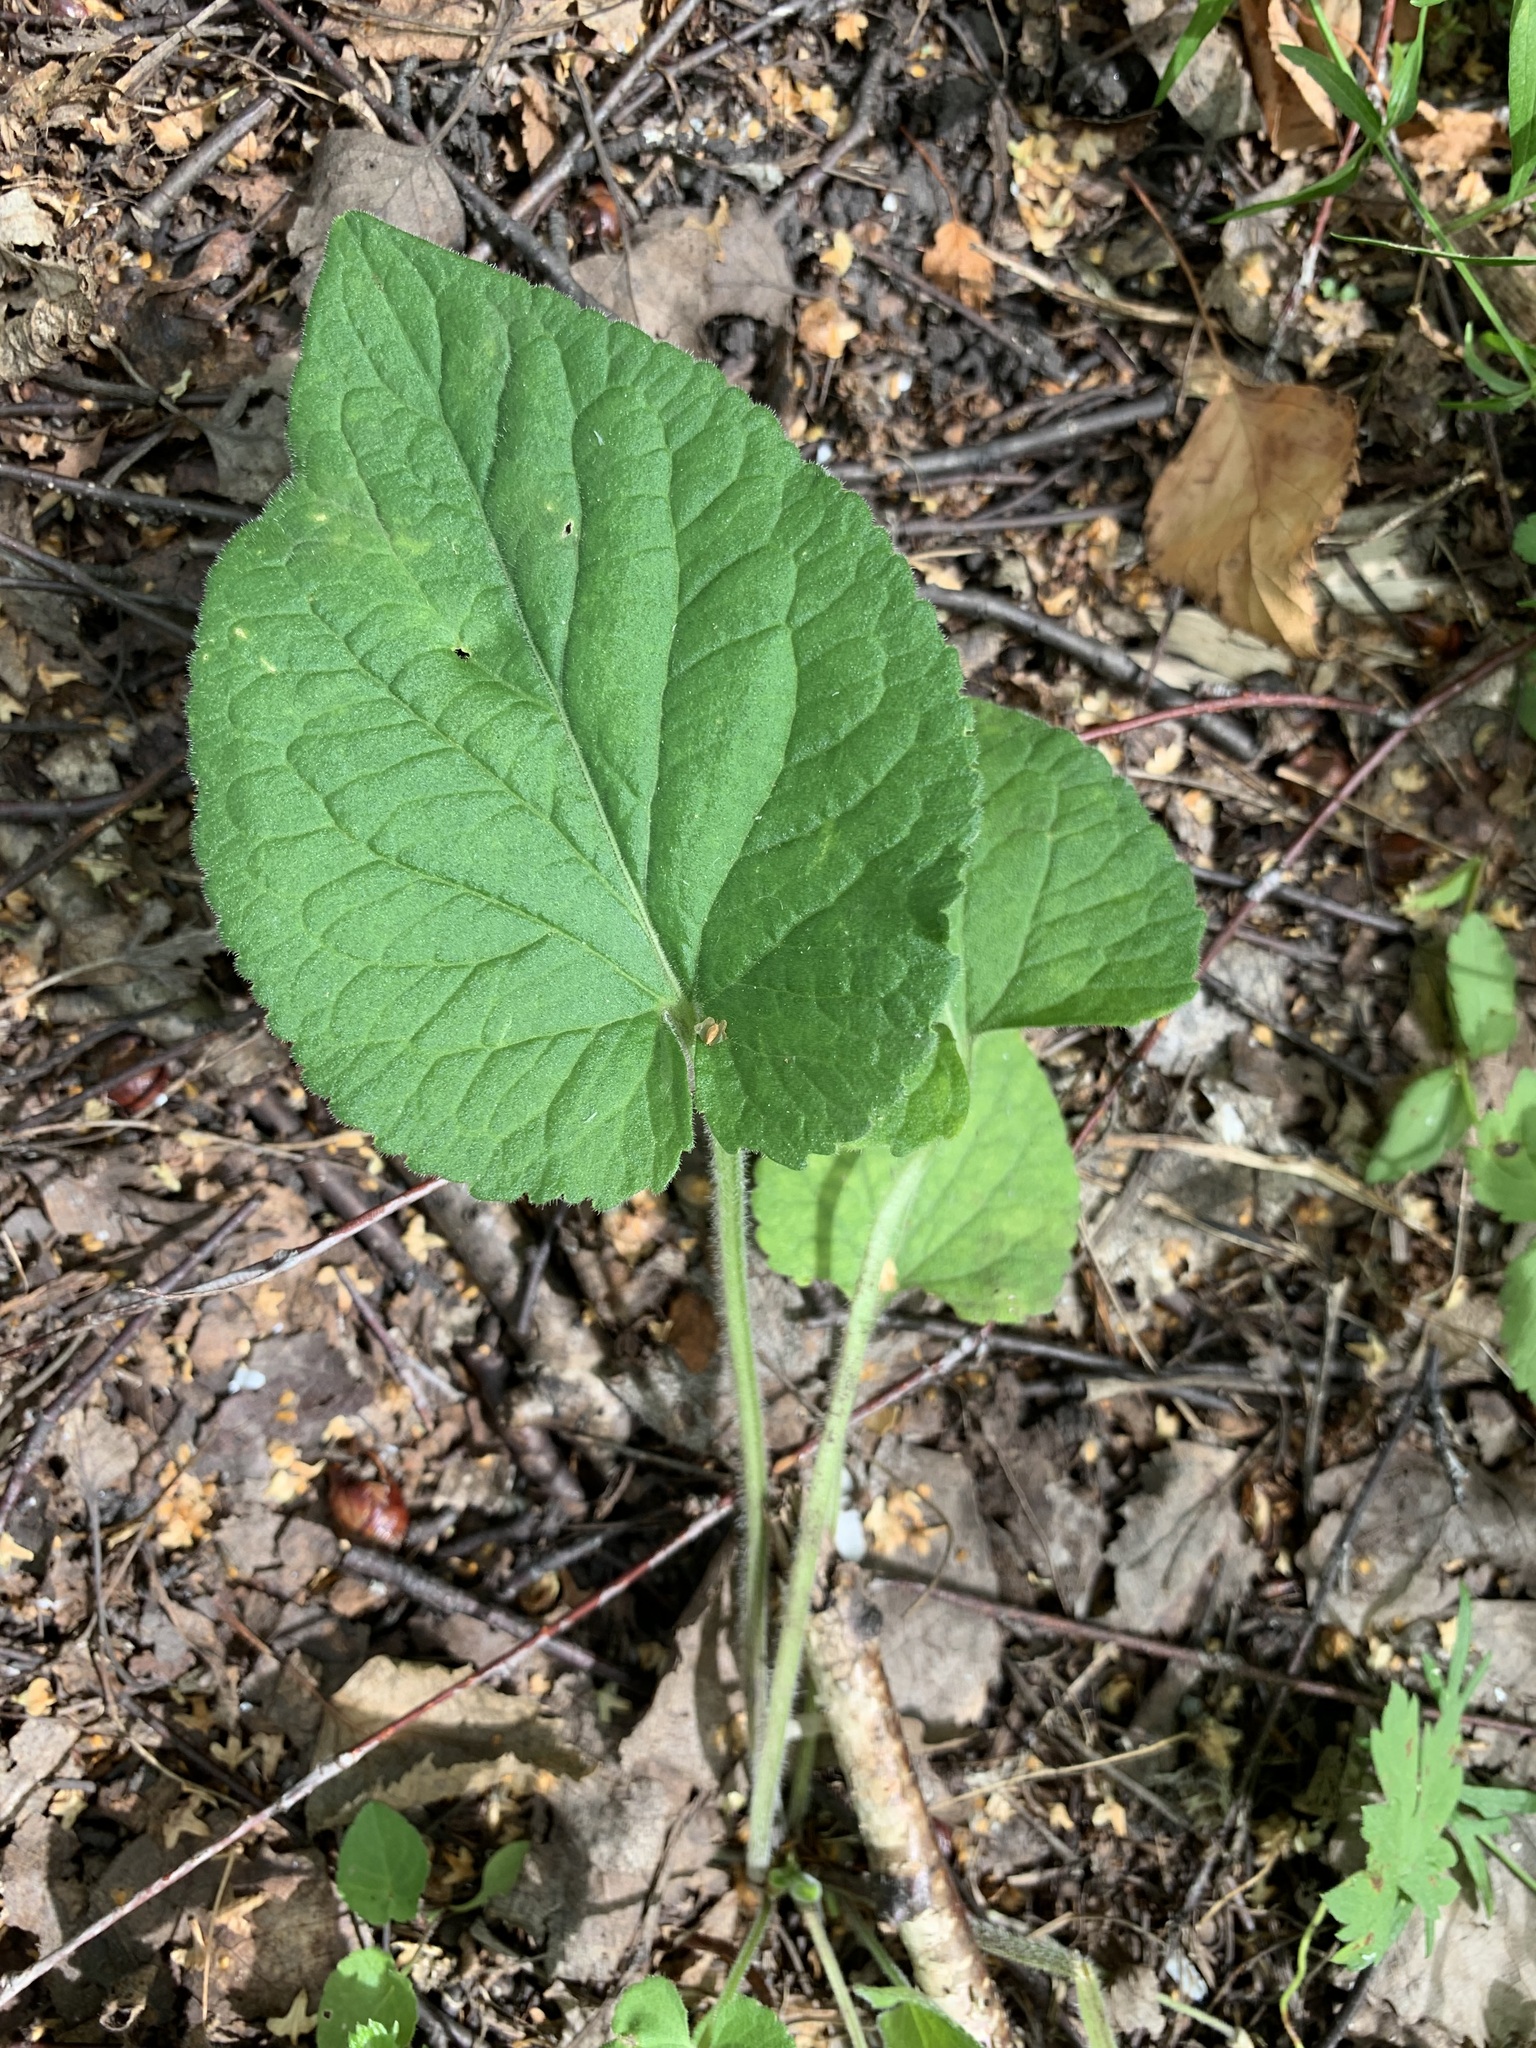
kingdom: Plantae
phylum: Tracheophyta
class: Magnoliopsida
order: Malpighiales
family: Violaceae
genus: Viola
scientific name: Viola hirta
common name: Hairy violet
